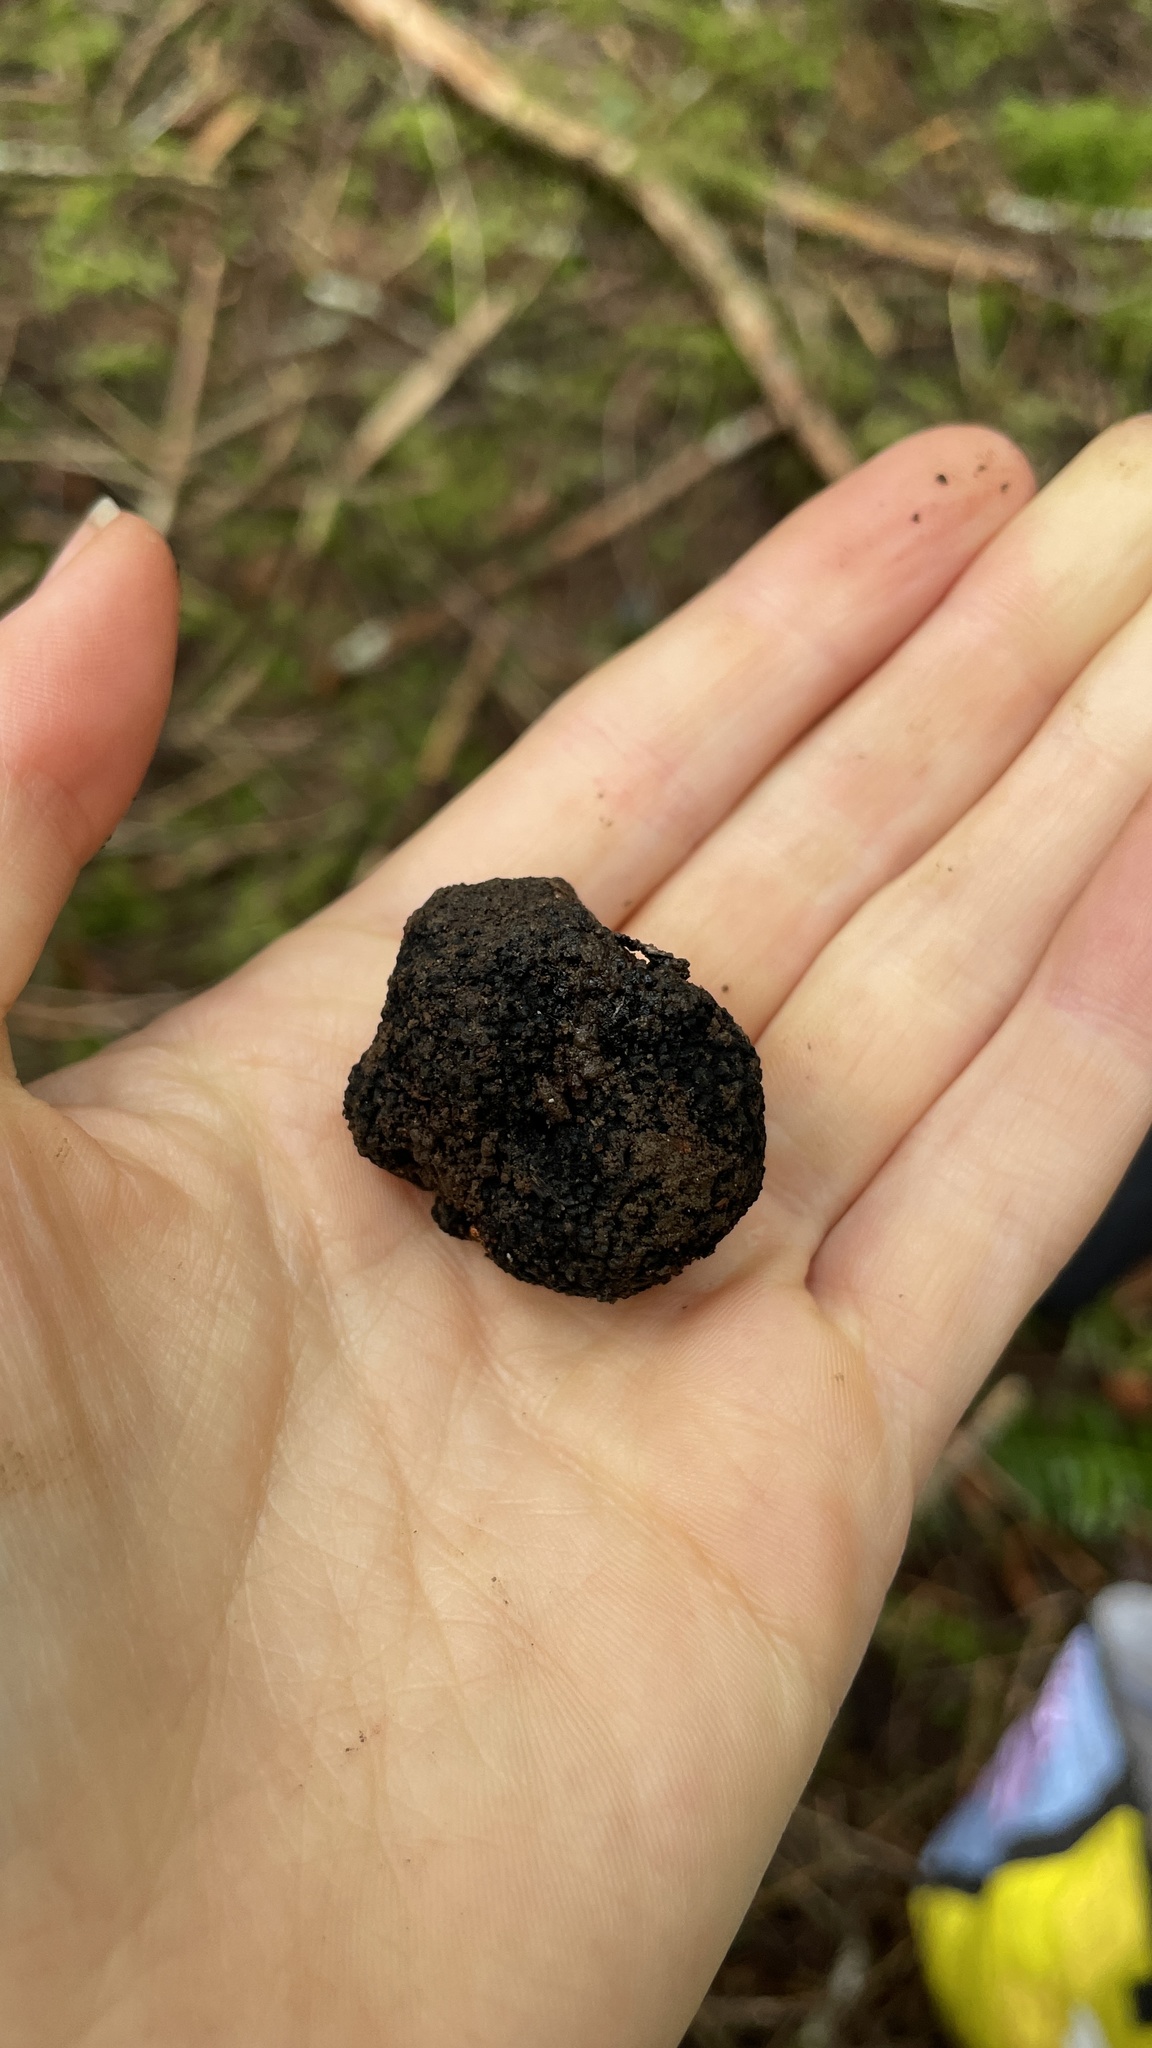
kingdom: Fungi
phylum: Ascomycota
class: Pezizomycetes
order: Pezizales
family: Morchellaceae
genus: Leucangium
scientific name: Leucangium carthusianum
